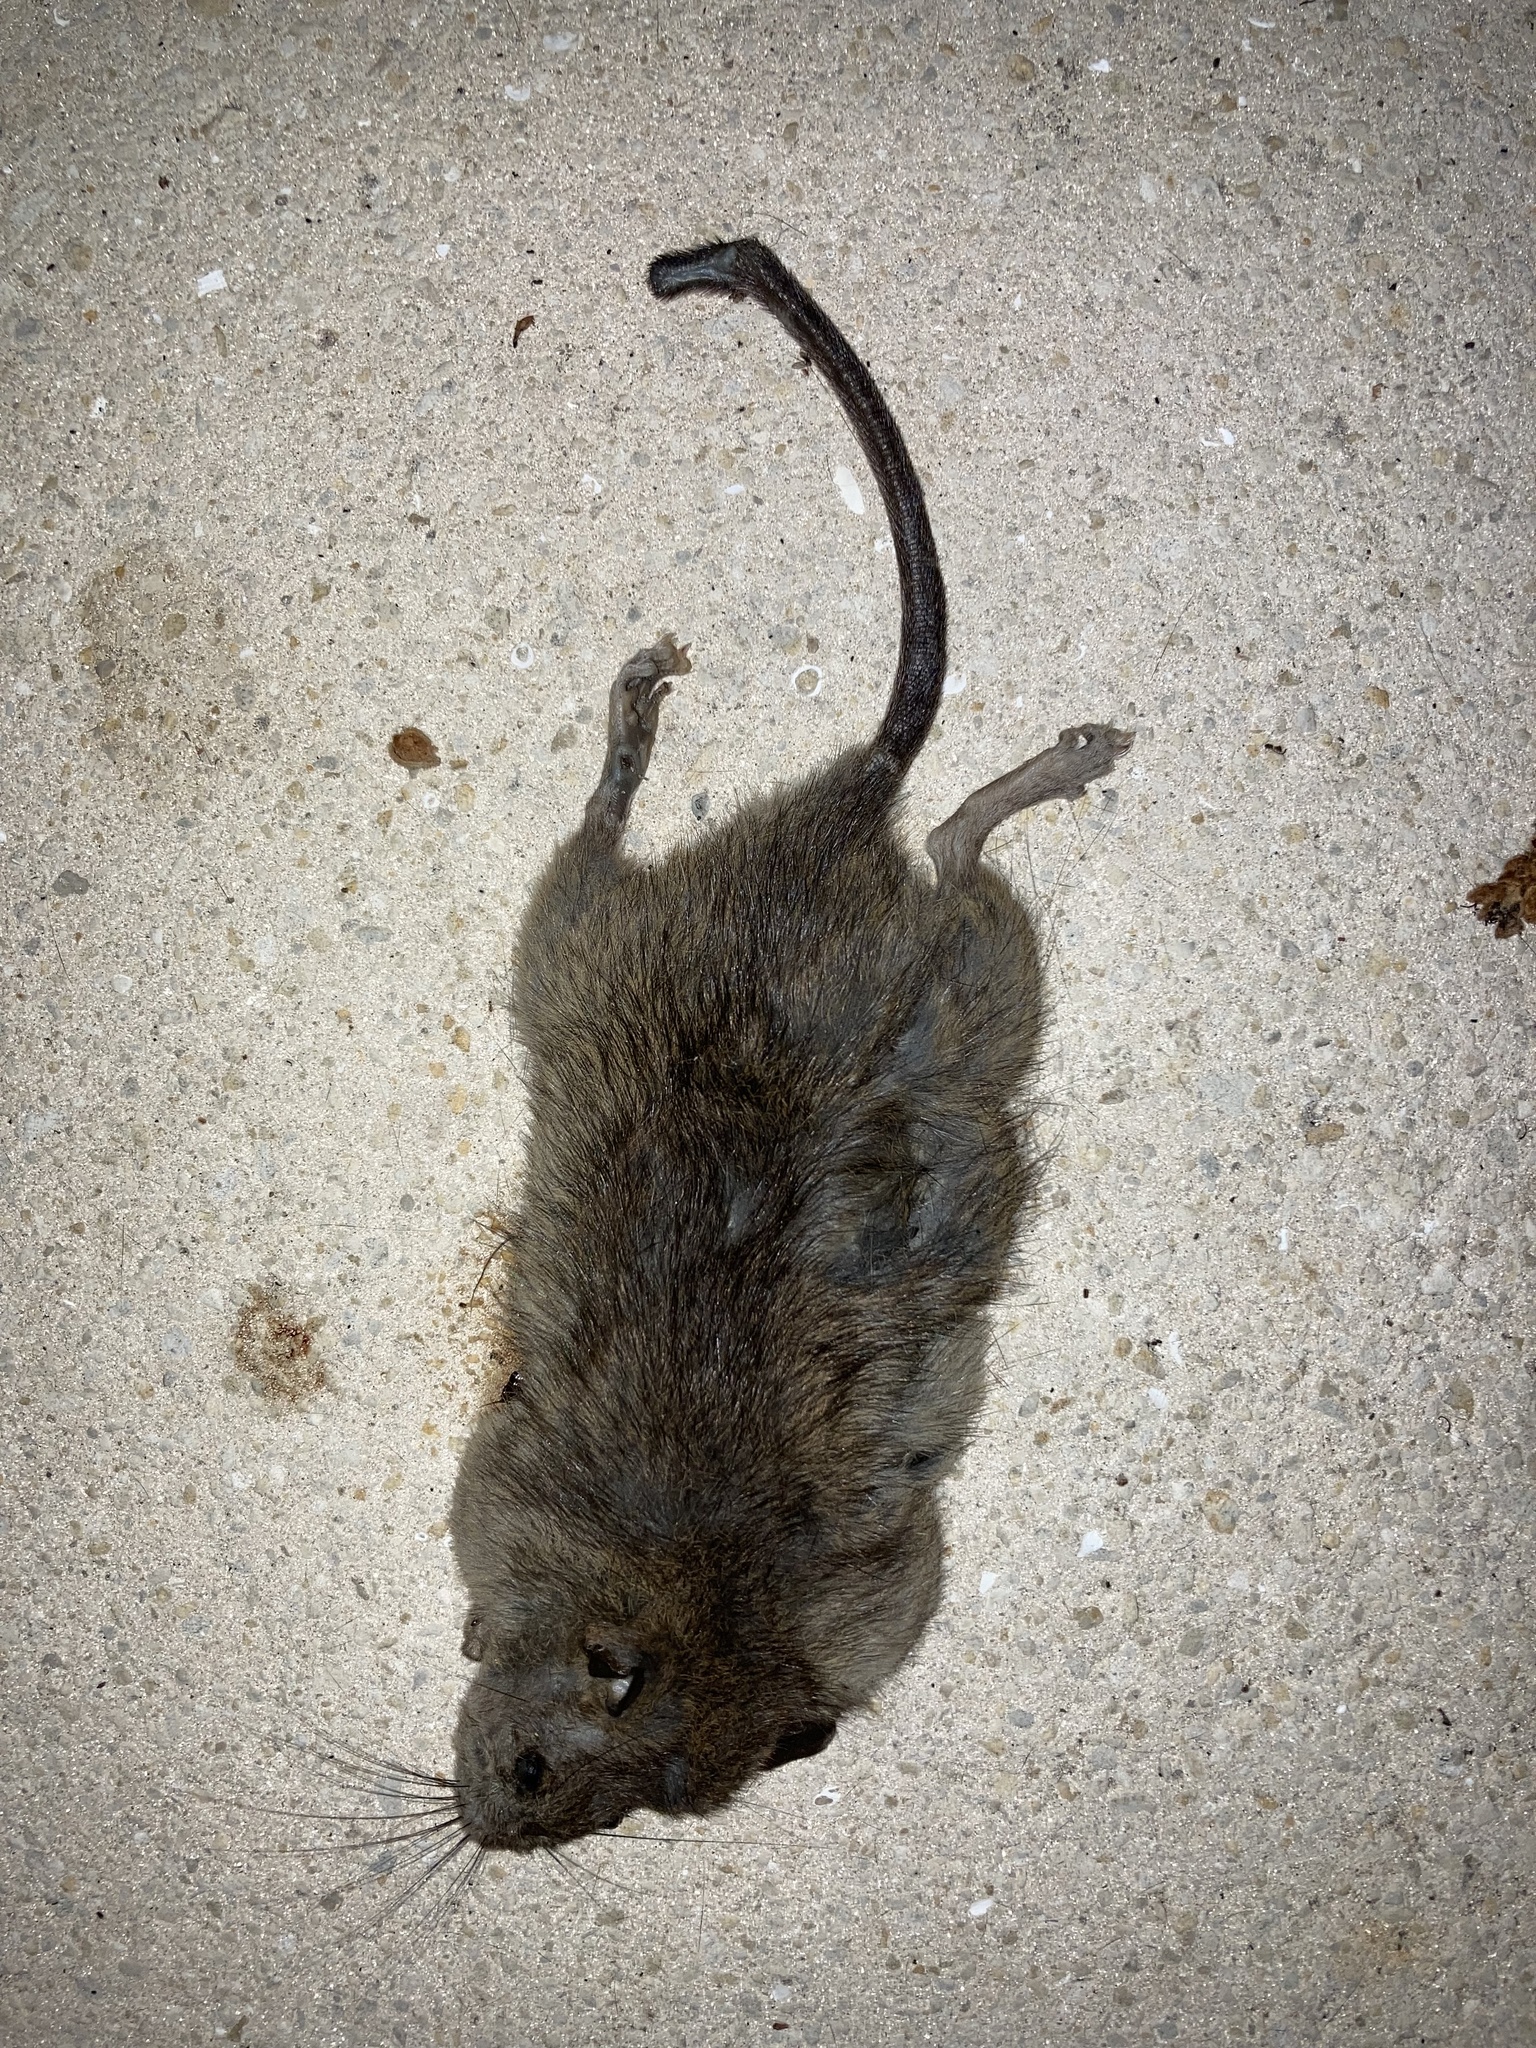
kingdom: Animalia
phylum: Chordata
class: Mammalia
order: Rodentia
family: Muridae
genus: Rattus
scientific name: Rattus rattus
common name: Black rat
